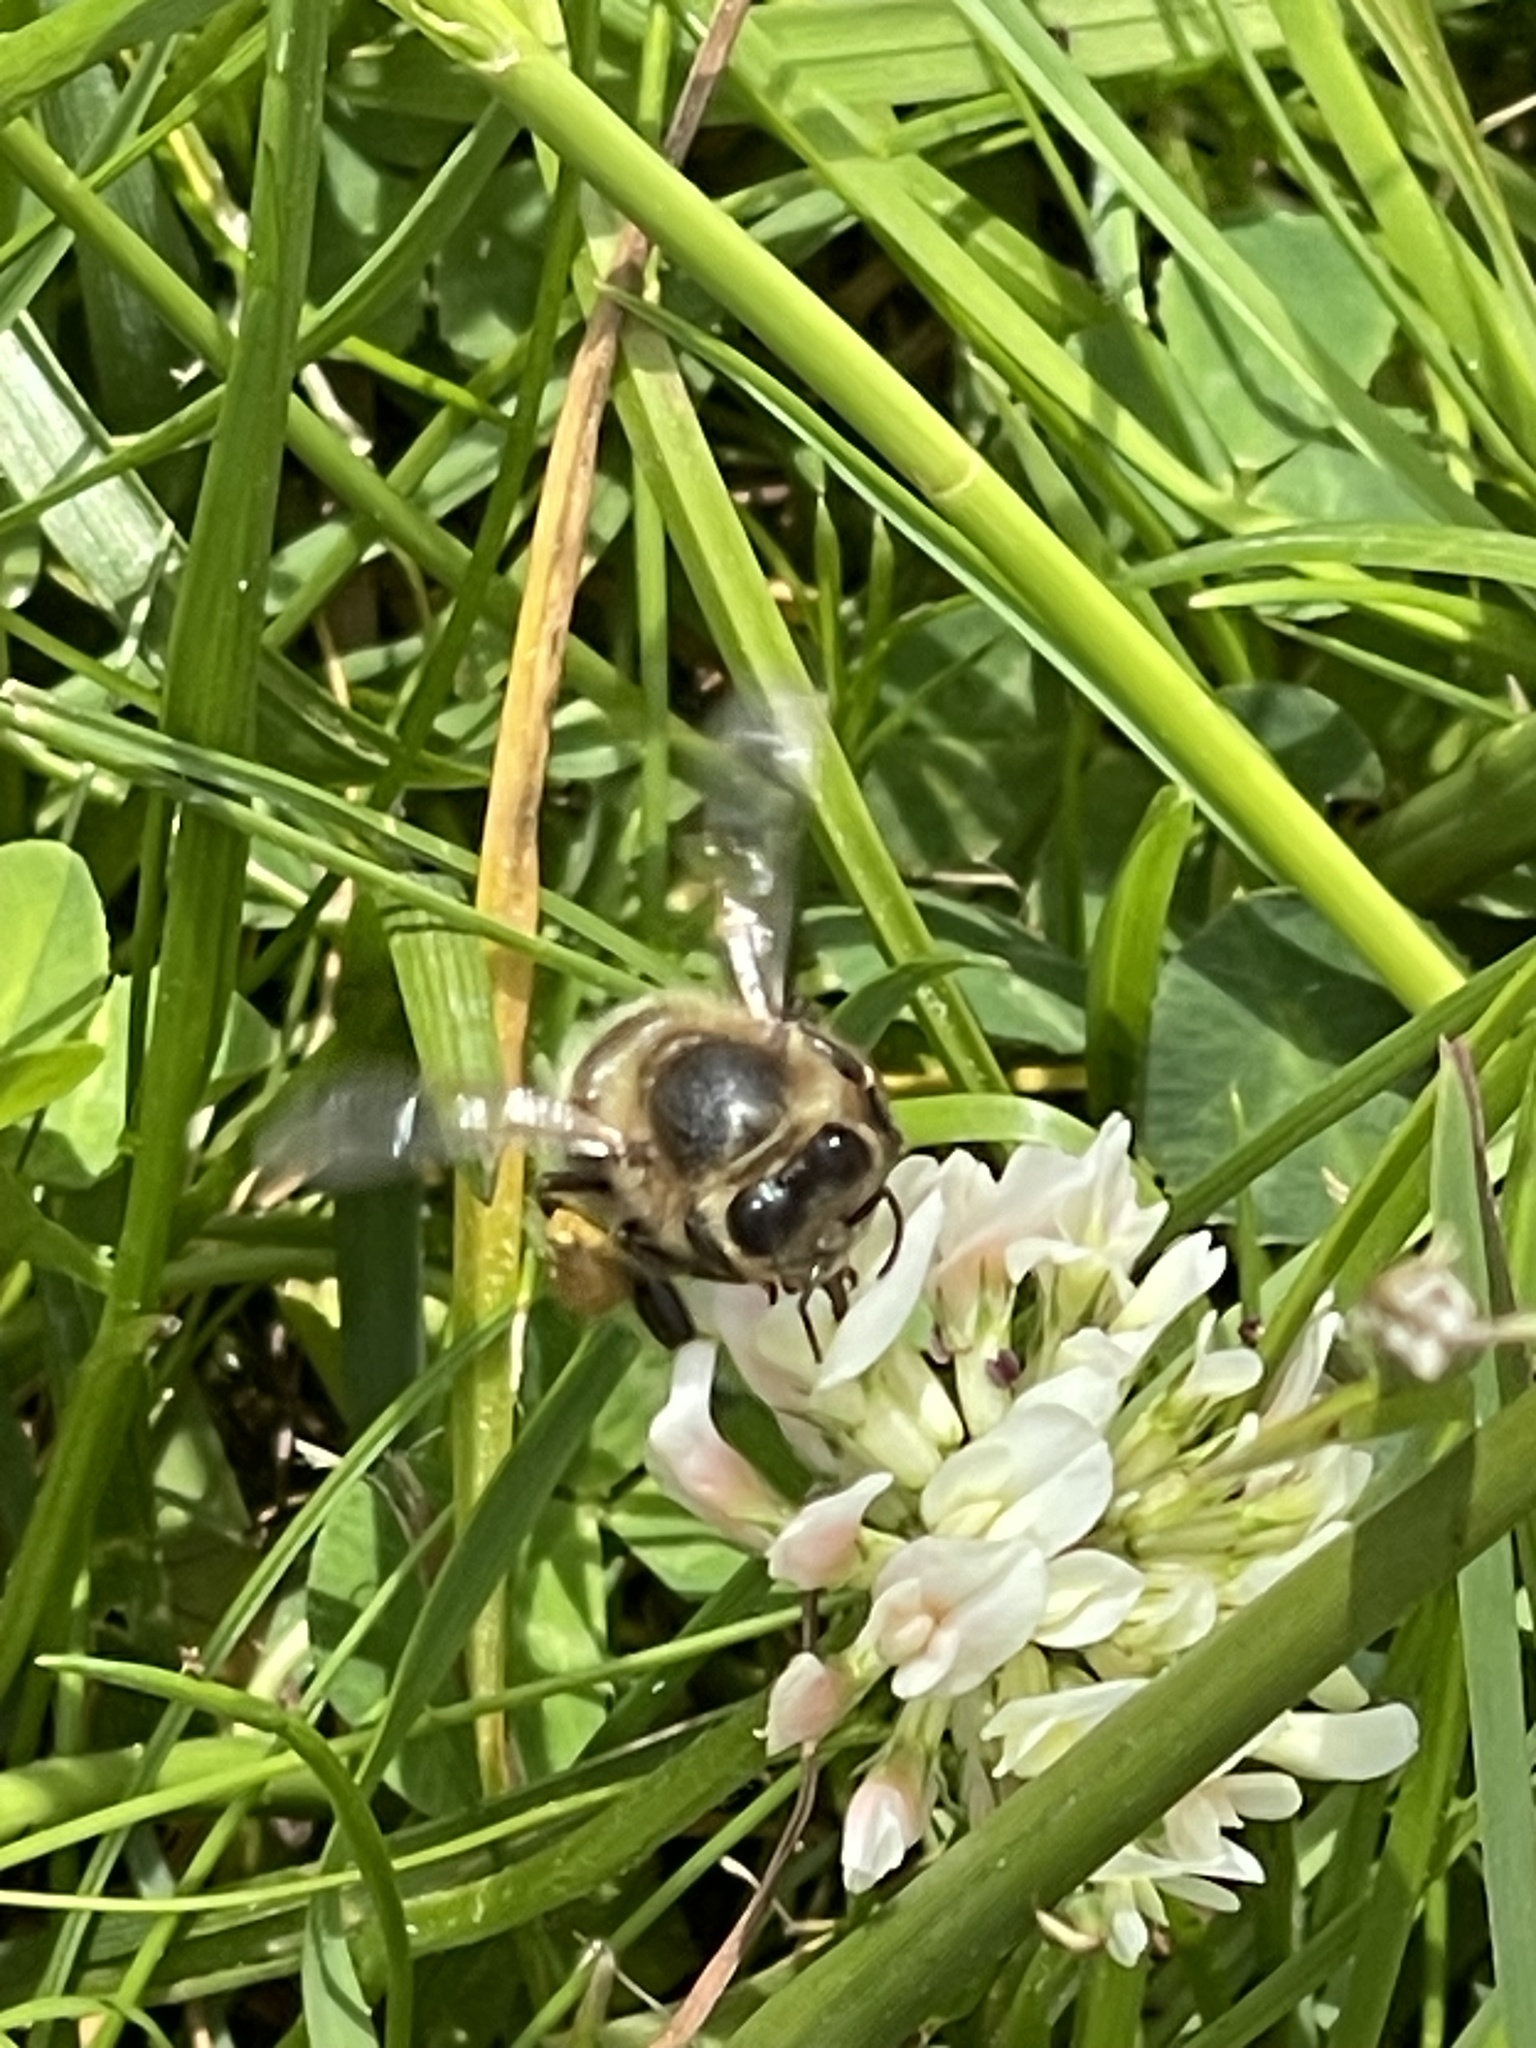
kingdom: Animalia
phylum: Arthropoda
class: Insecta
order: Hymenoptera
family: Apidae
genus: Apis
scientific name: Apis mellifera
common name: Honey bee
